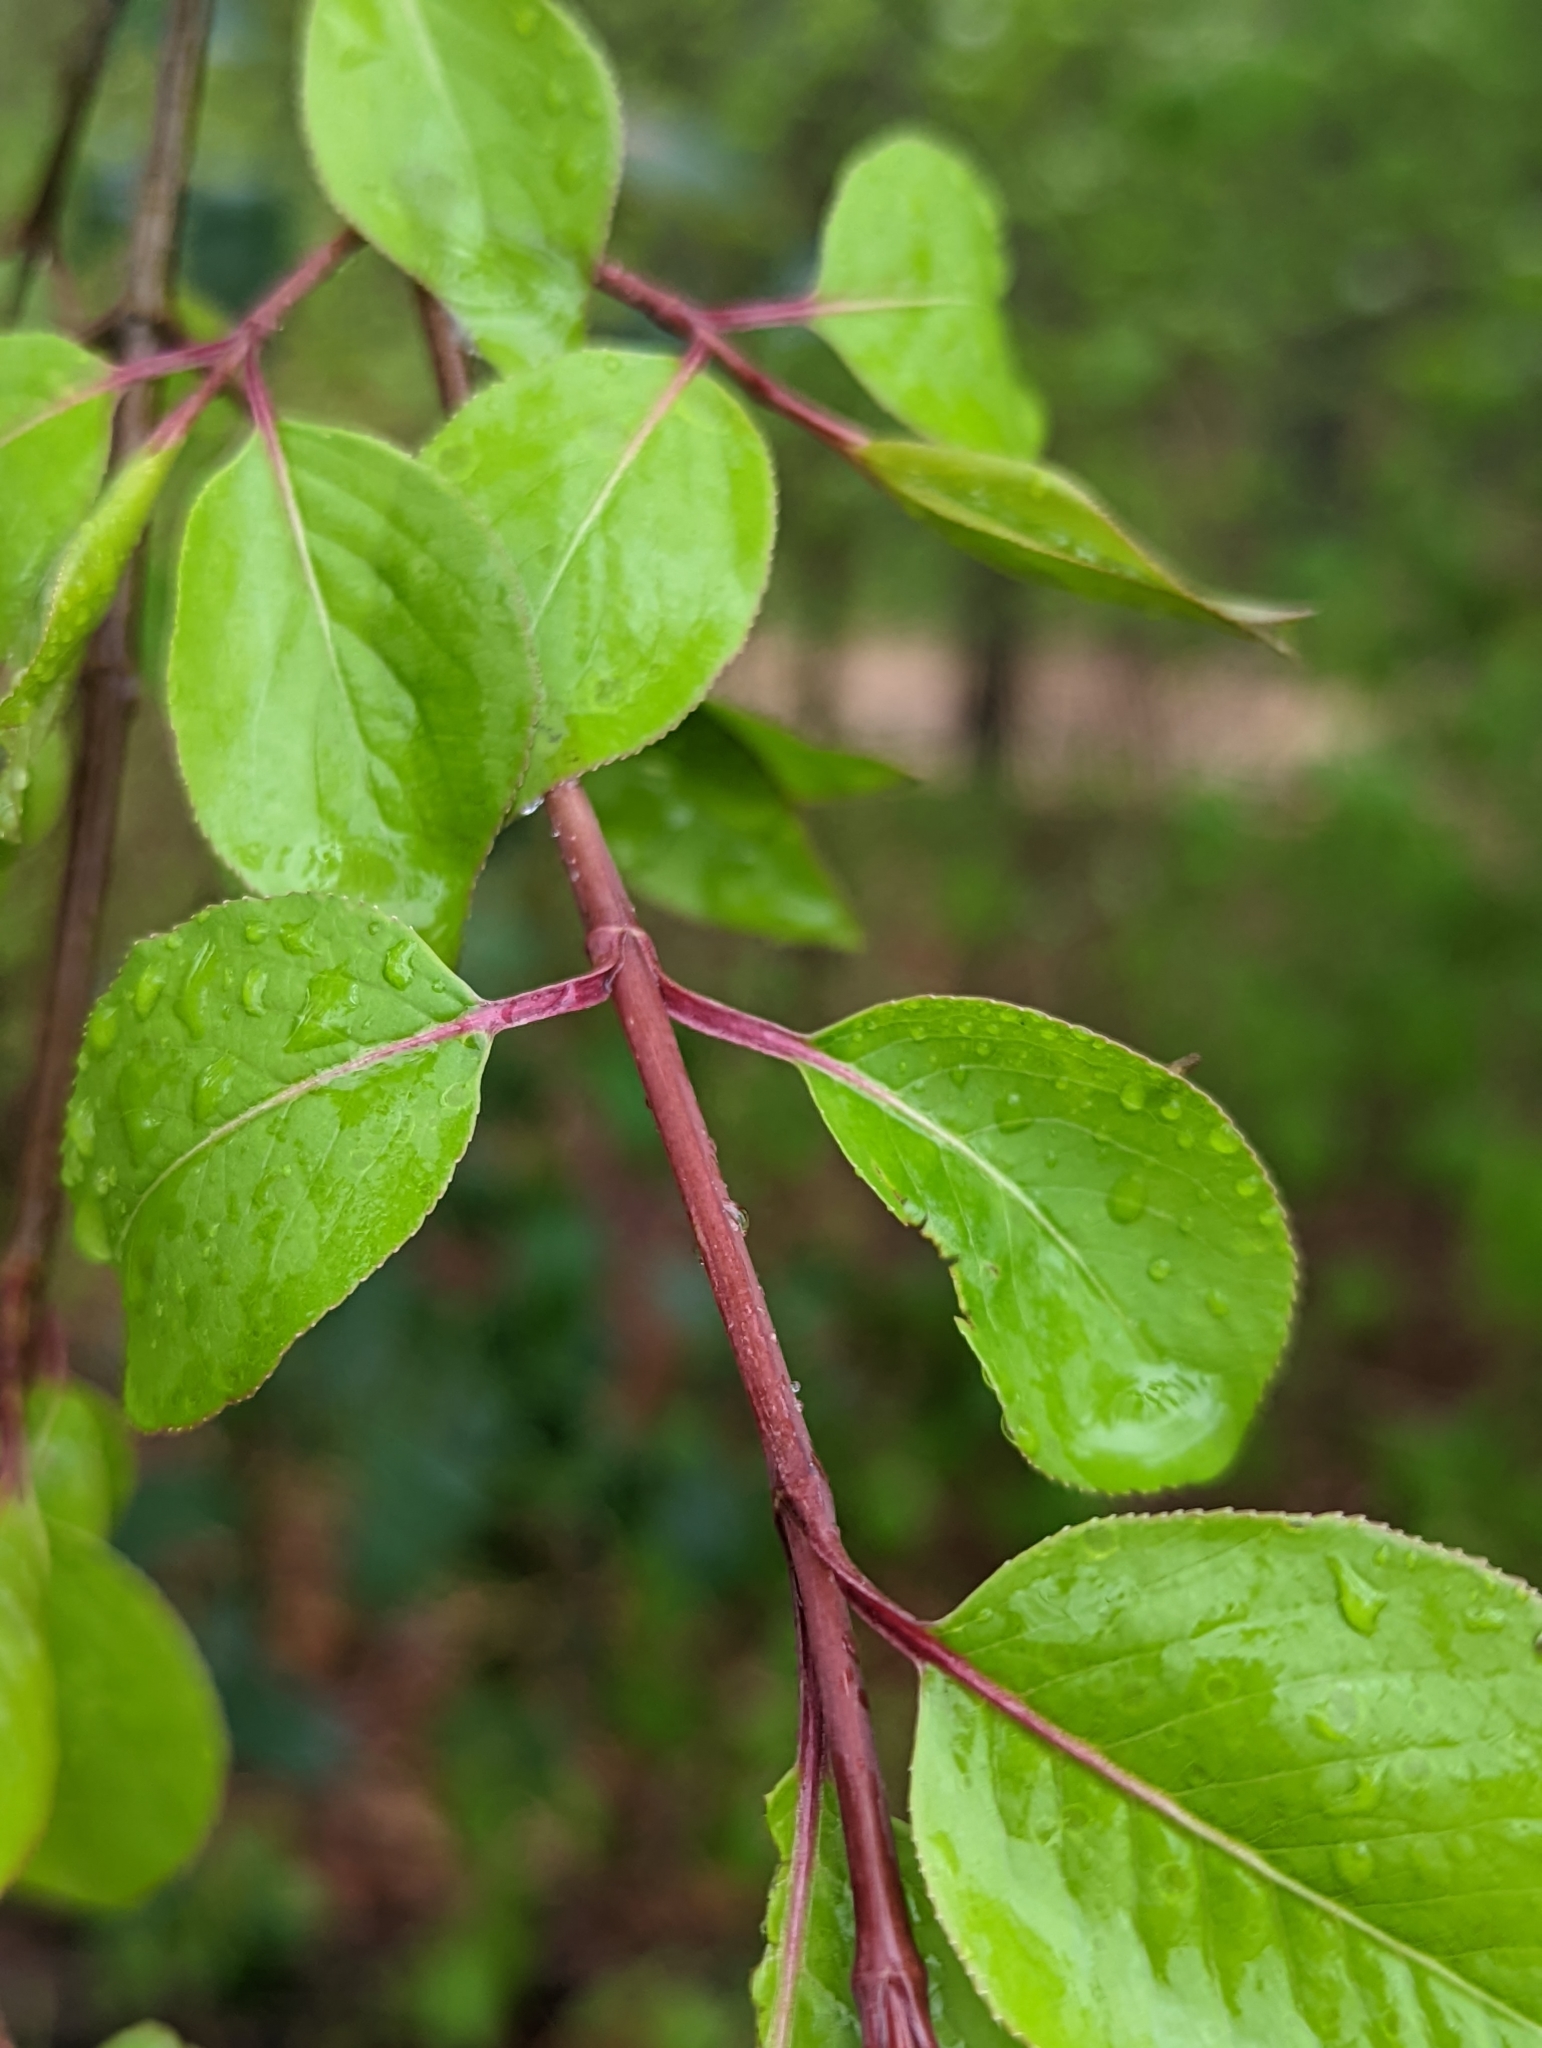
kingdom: Plantae
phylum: Tracheophyta
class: Magnoliopsida
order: Dipsacales
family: Viburnaceae
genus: Viburnum
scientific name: Viburnum prunifolium
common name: Black haw
